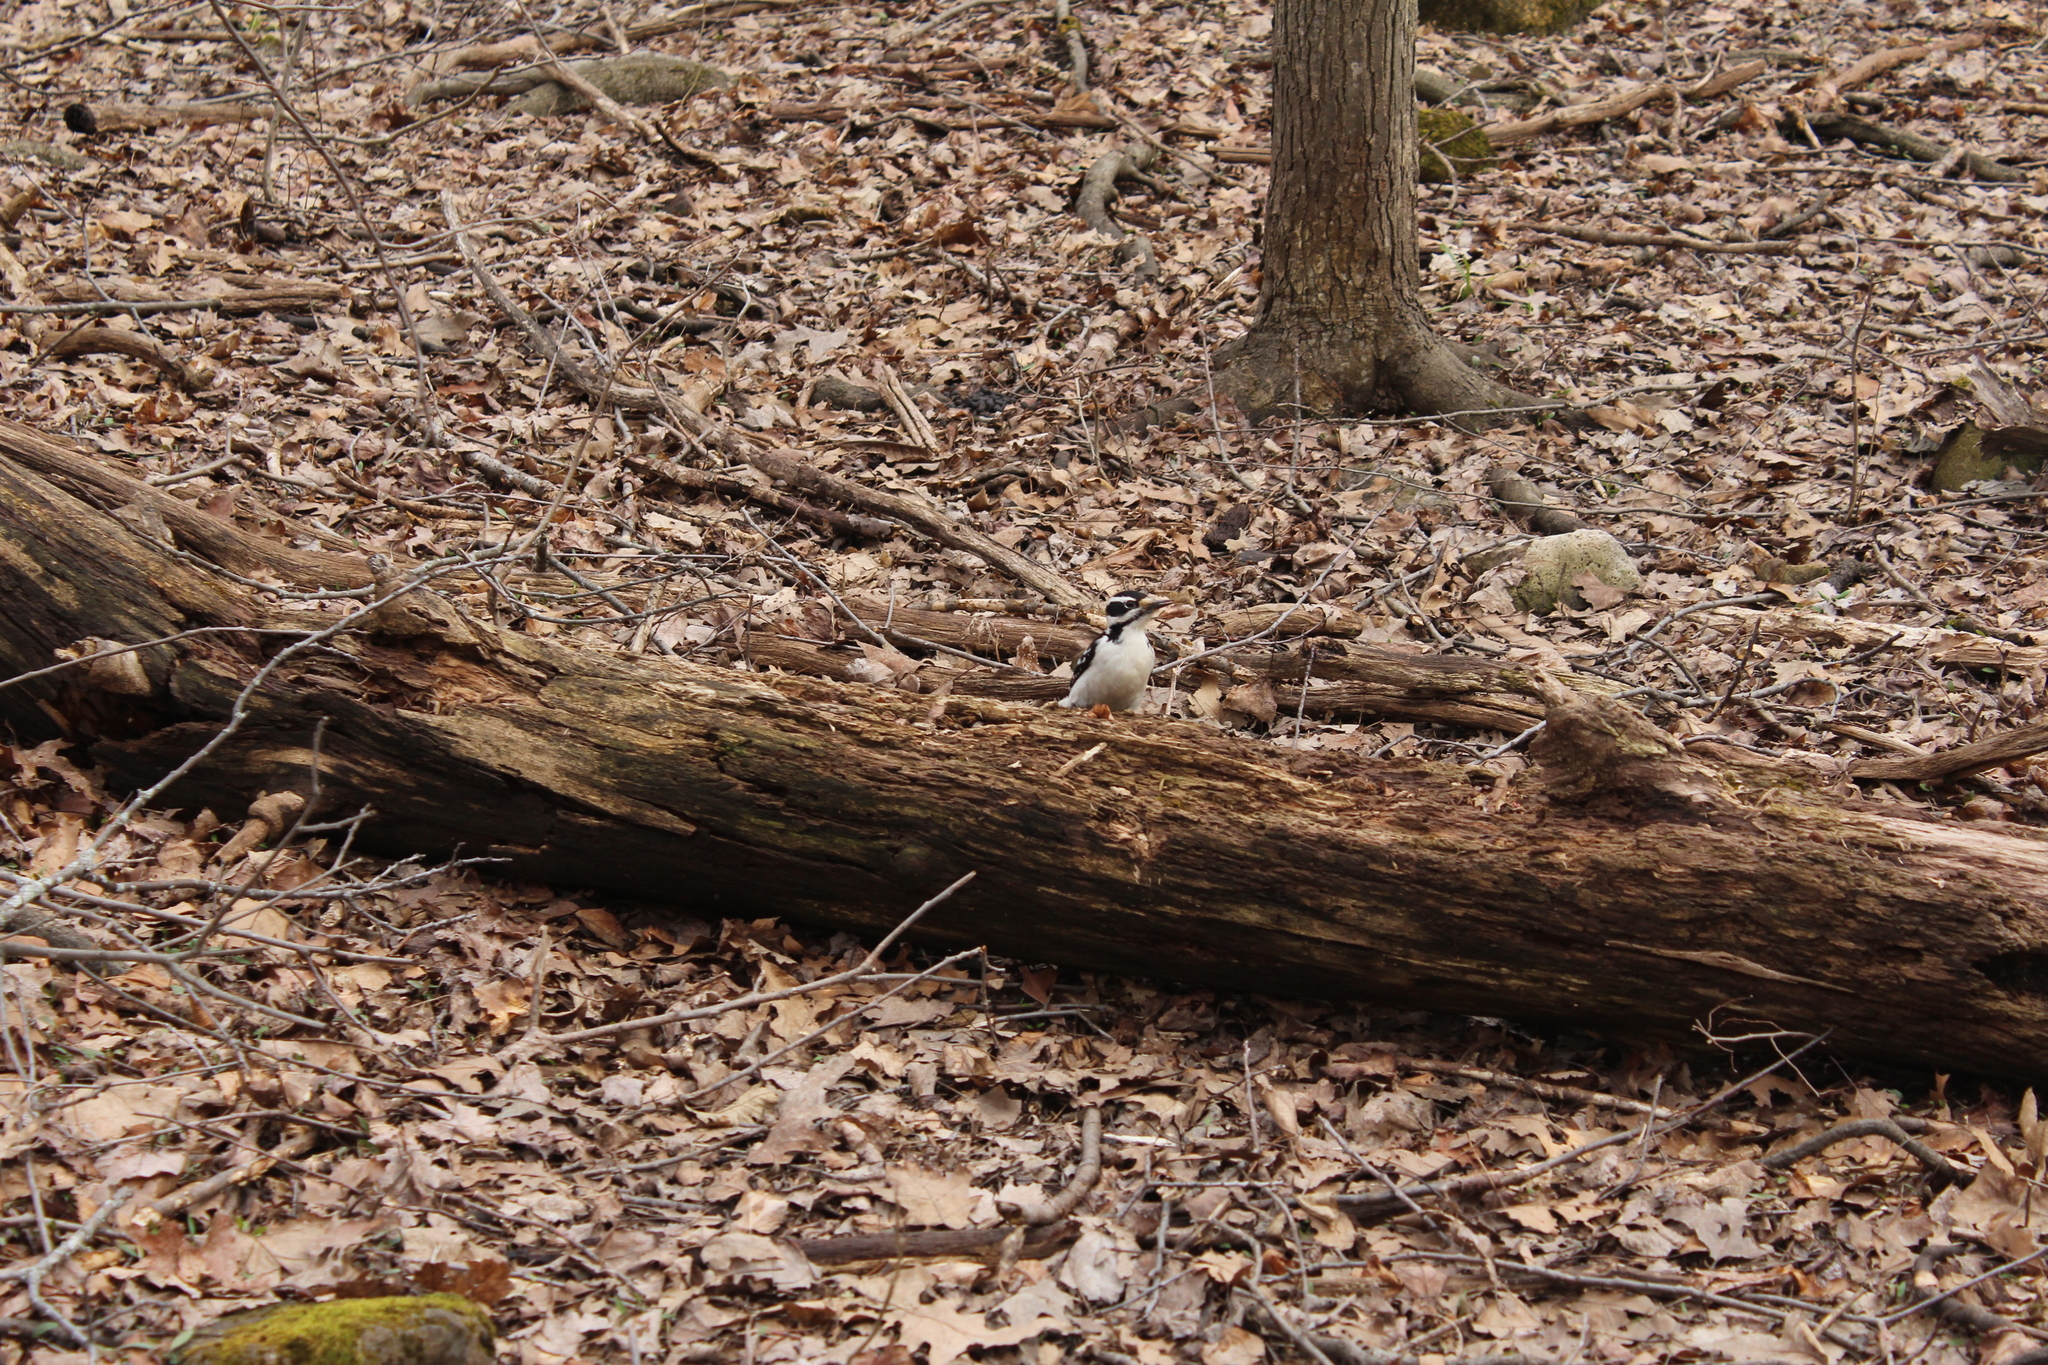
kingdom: Animalia
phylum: Chordata
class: Aves
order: Piciformes
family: Picidae
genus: Leuconotopicus
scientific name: Leuconotopicus villosus
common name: Hairy woodpecker
